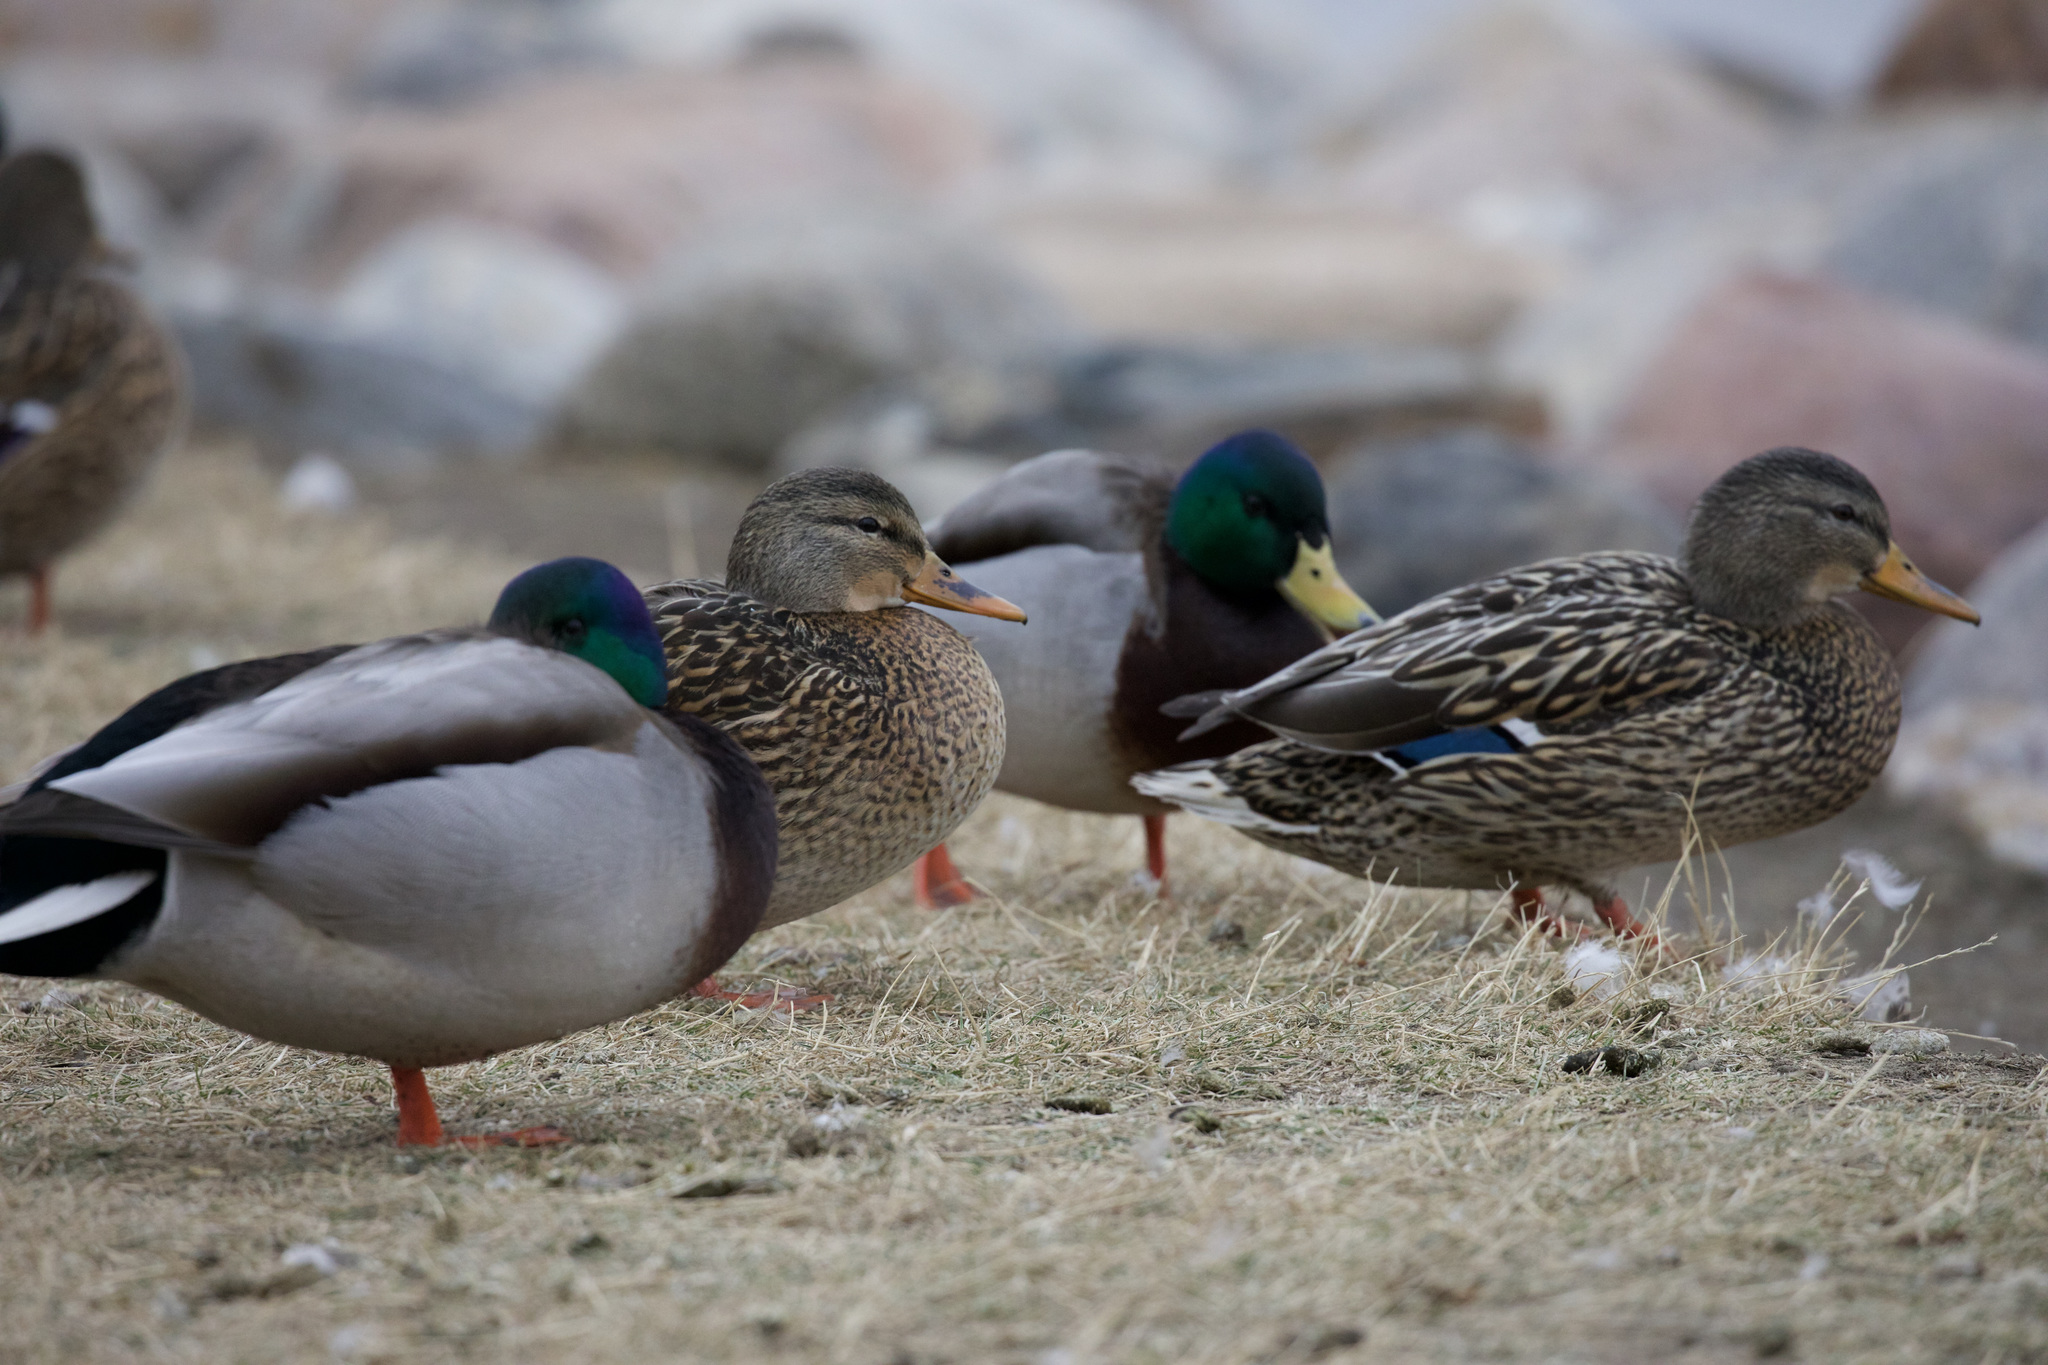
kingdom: Animalia
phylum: Chordata
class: Aves
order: Anseriformes
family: Anatidae
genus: Anas
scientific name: Anas platyrhynchos
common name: Mallard
